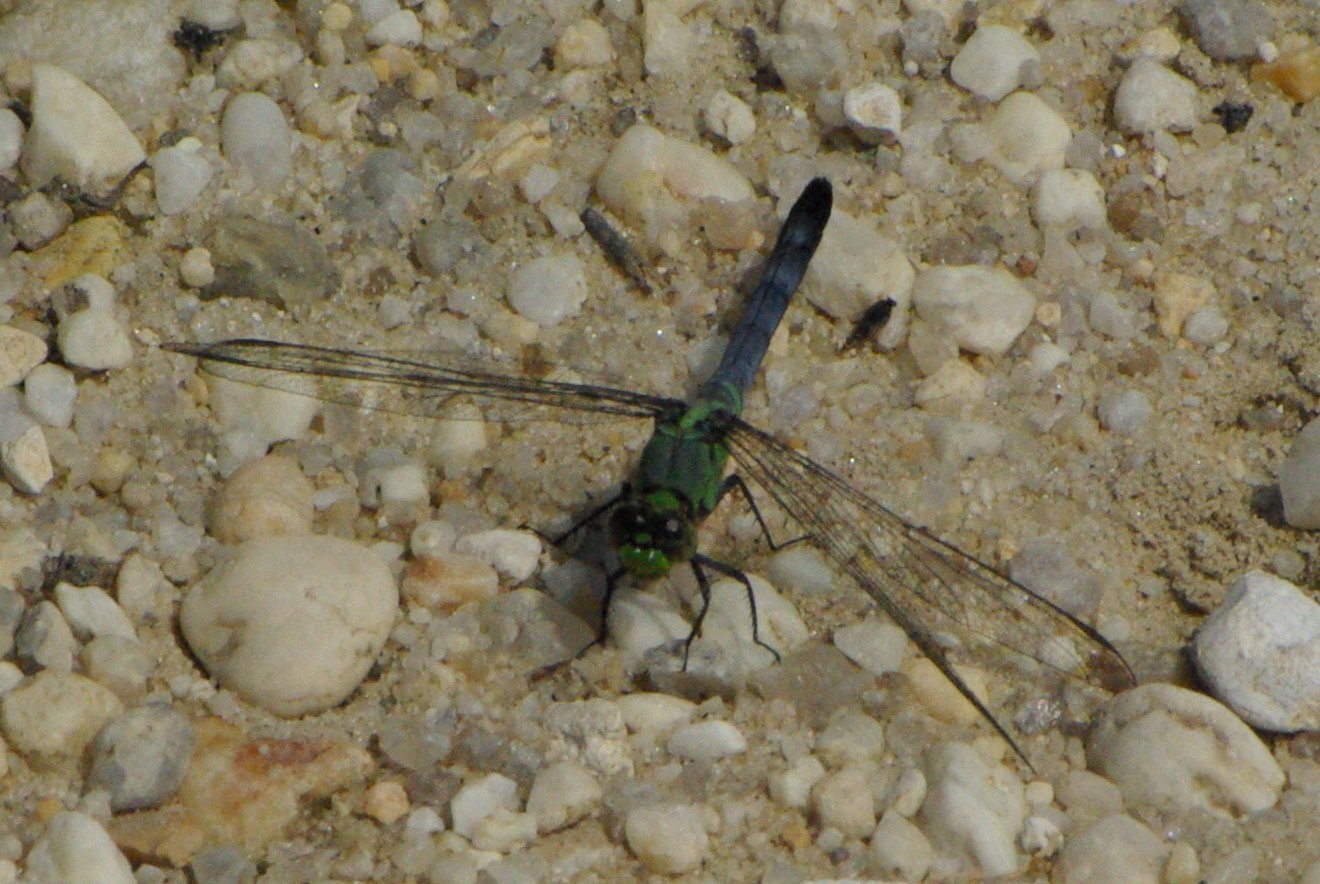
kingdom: Animalia
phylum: Arthropoda
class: Insecta
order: Odonata
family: Libellulidae
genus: Erythemis
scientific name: Erythemis simplicicollis
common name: Eastern pondhawk
